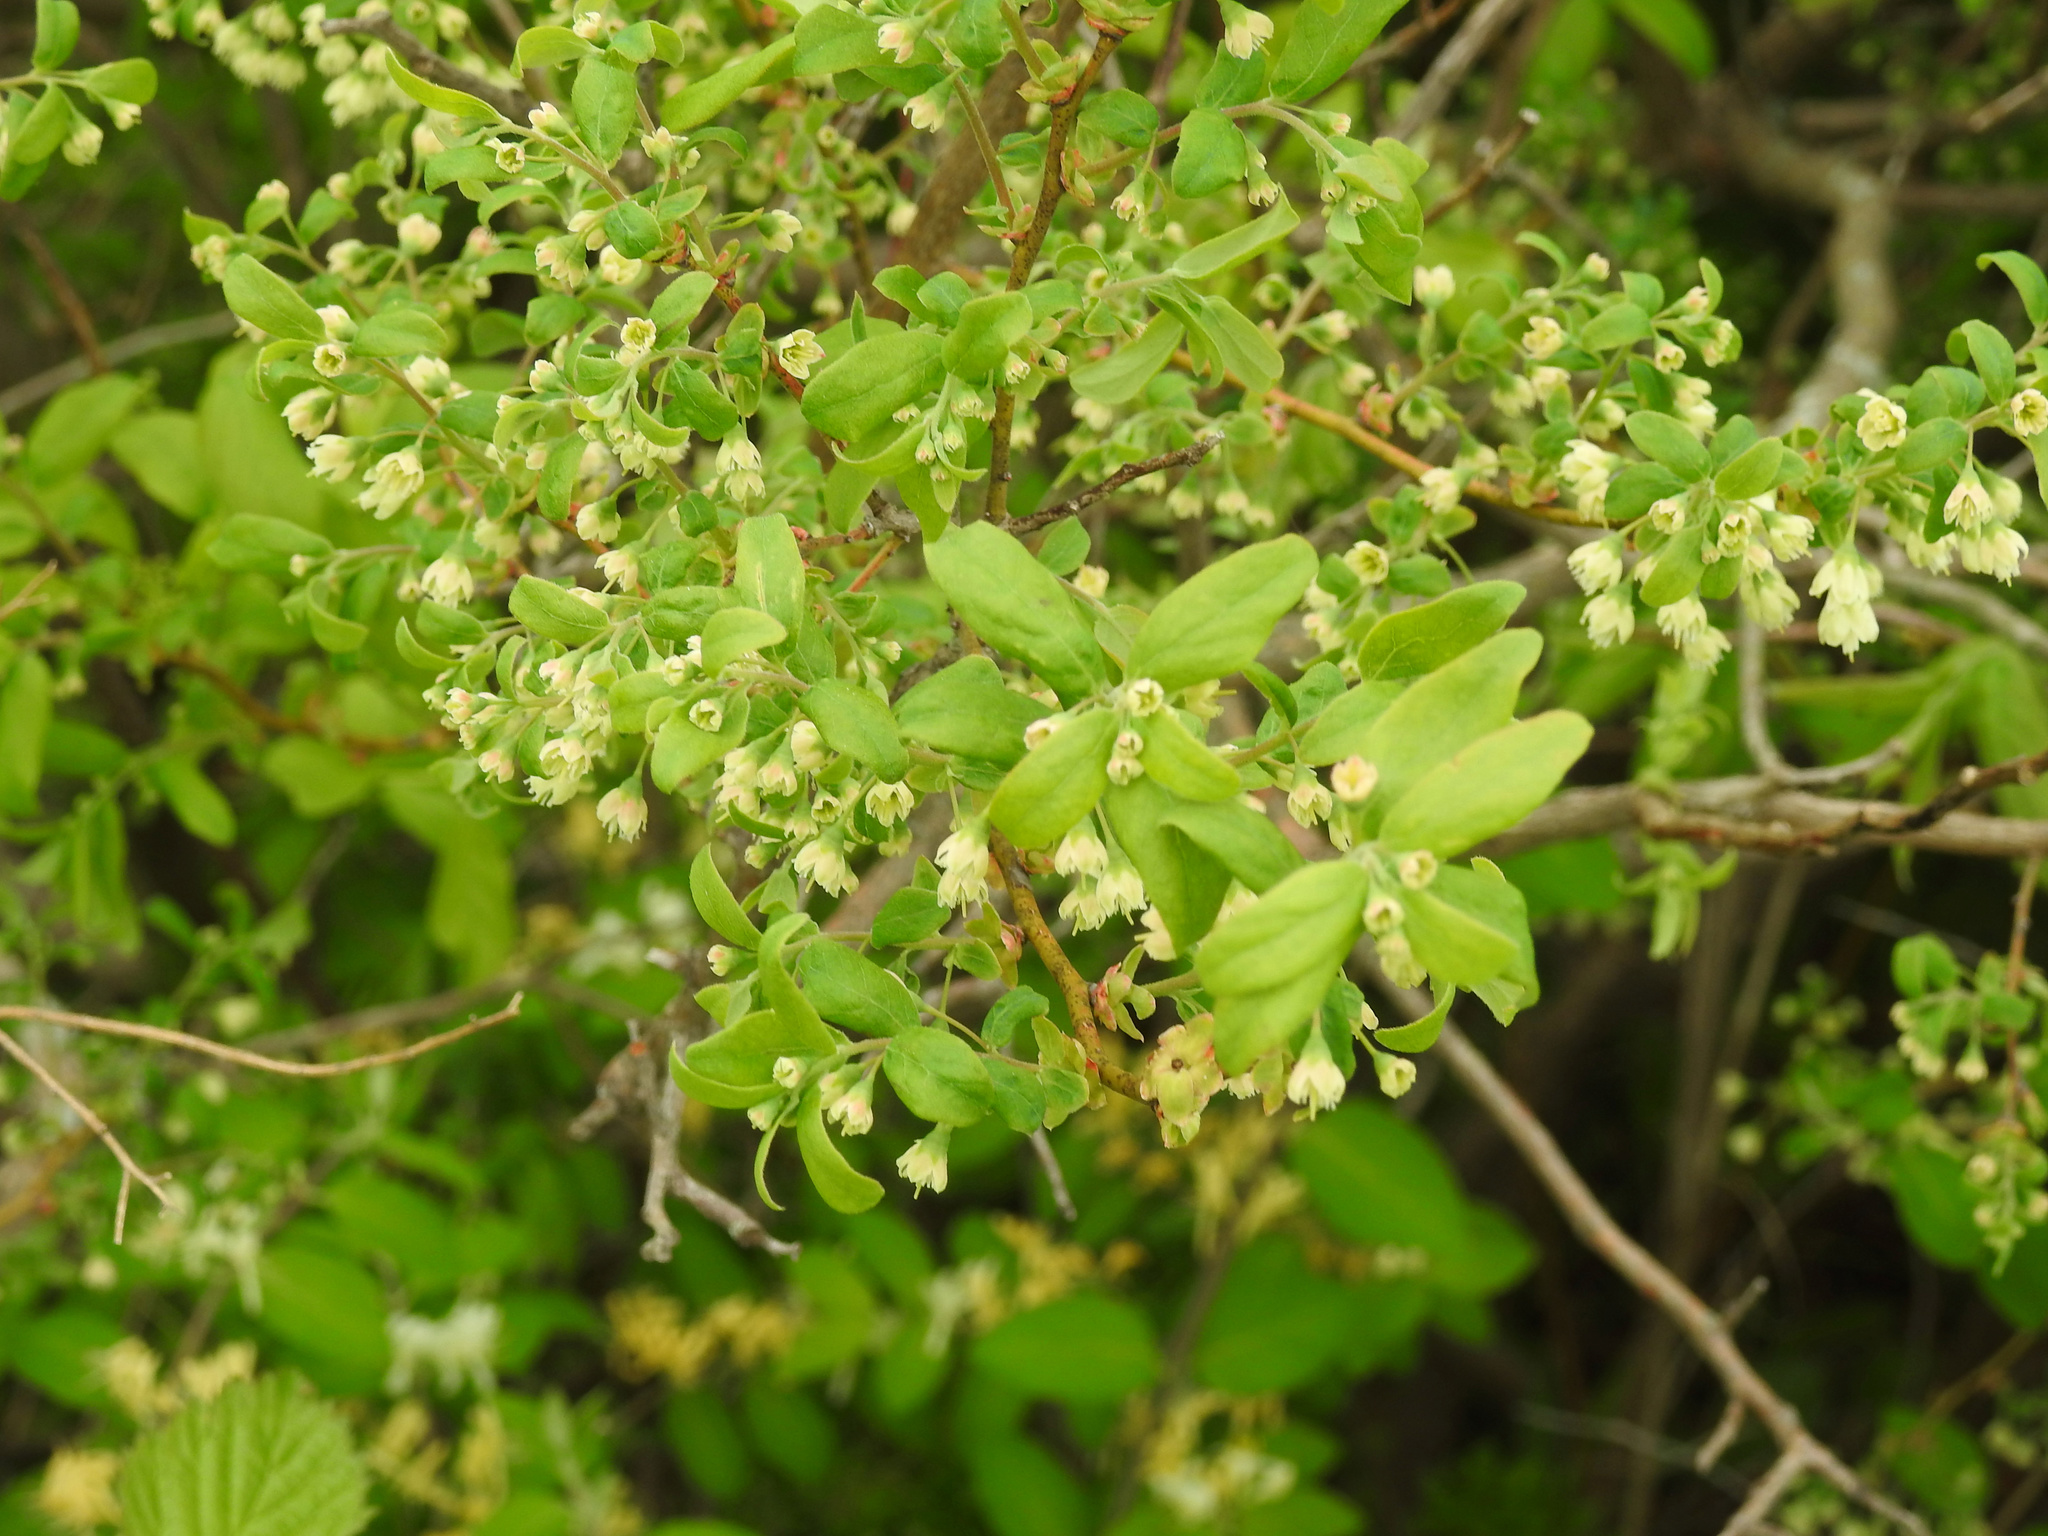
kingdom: Plantae
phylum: Tracheophyta
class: Magnoliopsida
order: Ericales
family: Ericaceae
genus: Vaccinium
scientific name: Vaccinium stamineum
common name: Deerberry
